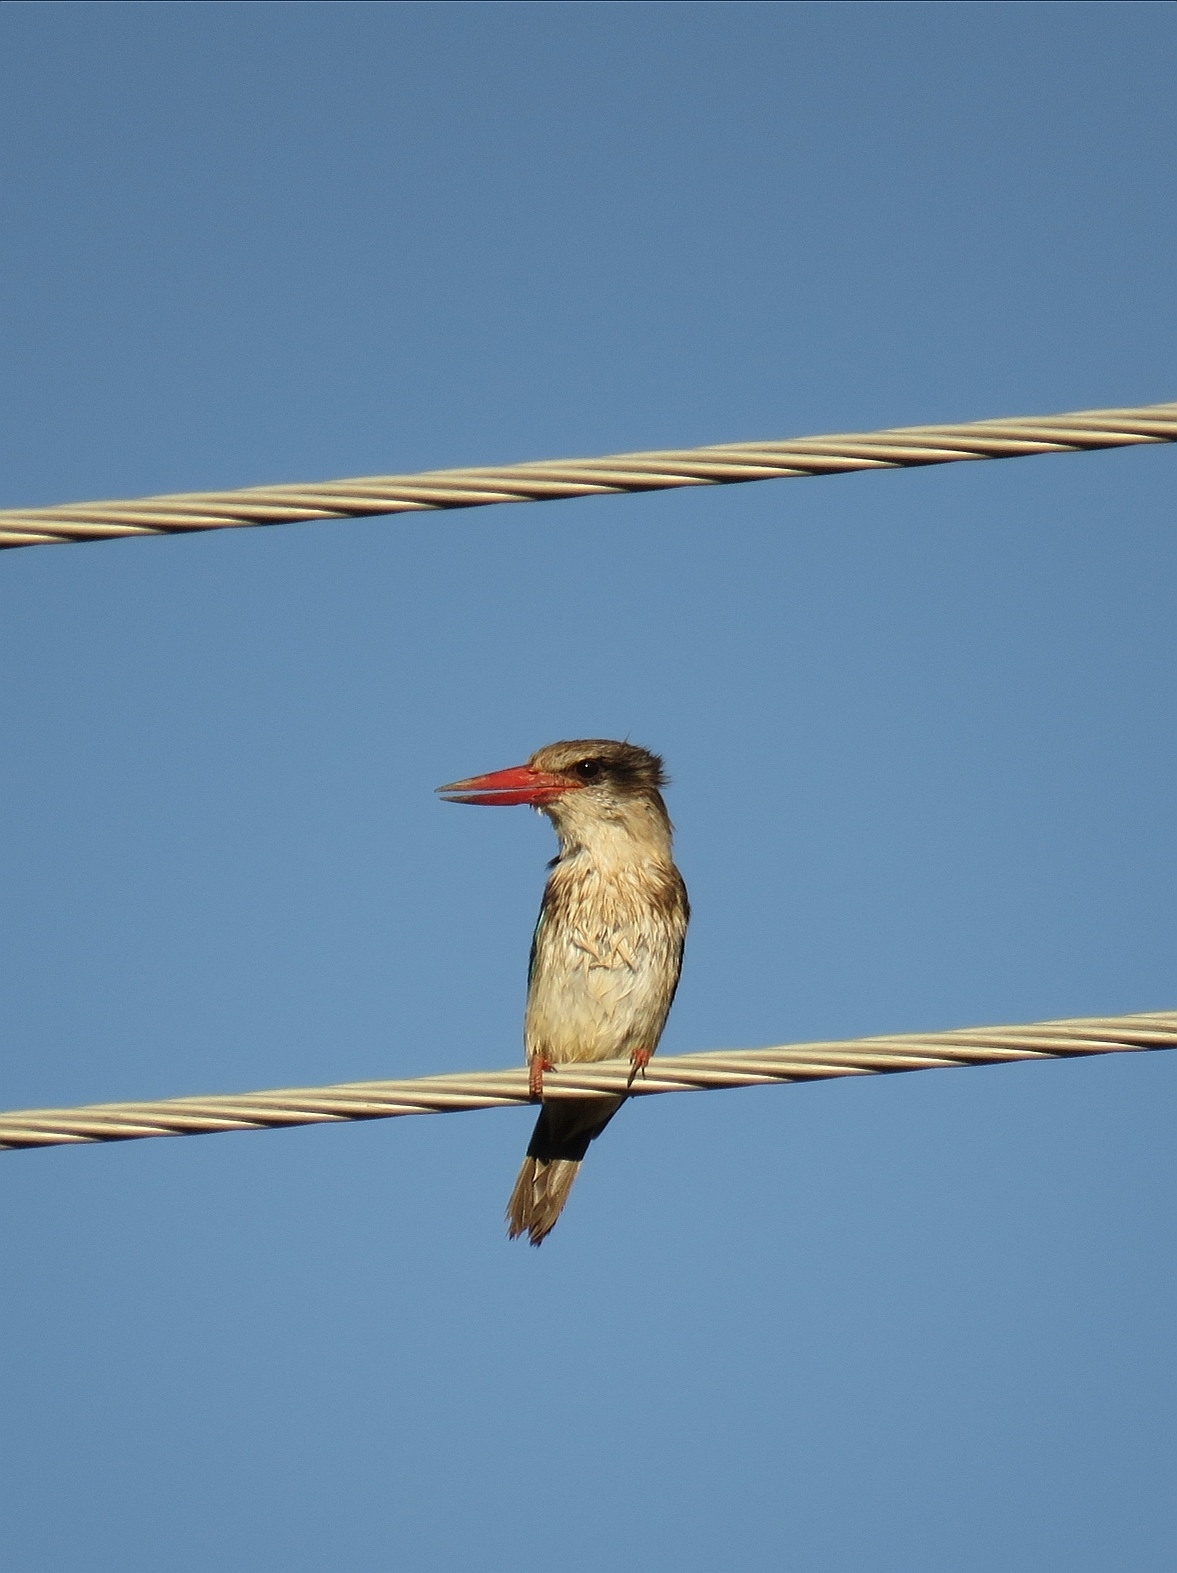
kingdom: Animalia
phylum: Chordata
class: Aves
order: Coraciiformes
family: Alcedinidae
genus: Halcyon
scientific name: Halcyon albiventris
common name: Brown-hooded kingfisher
